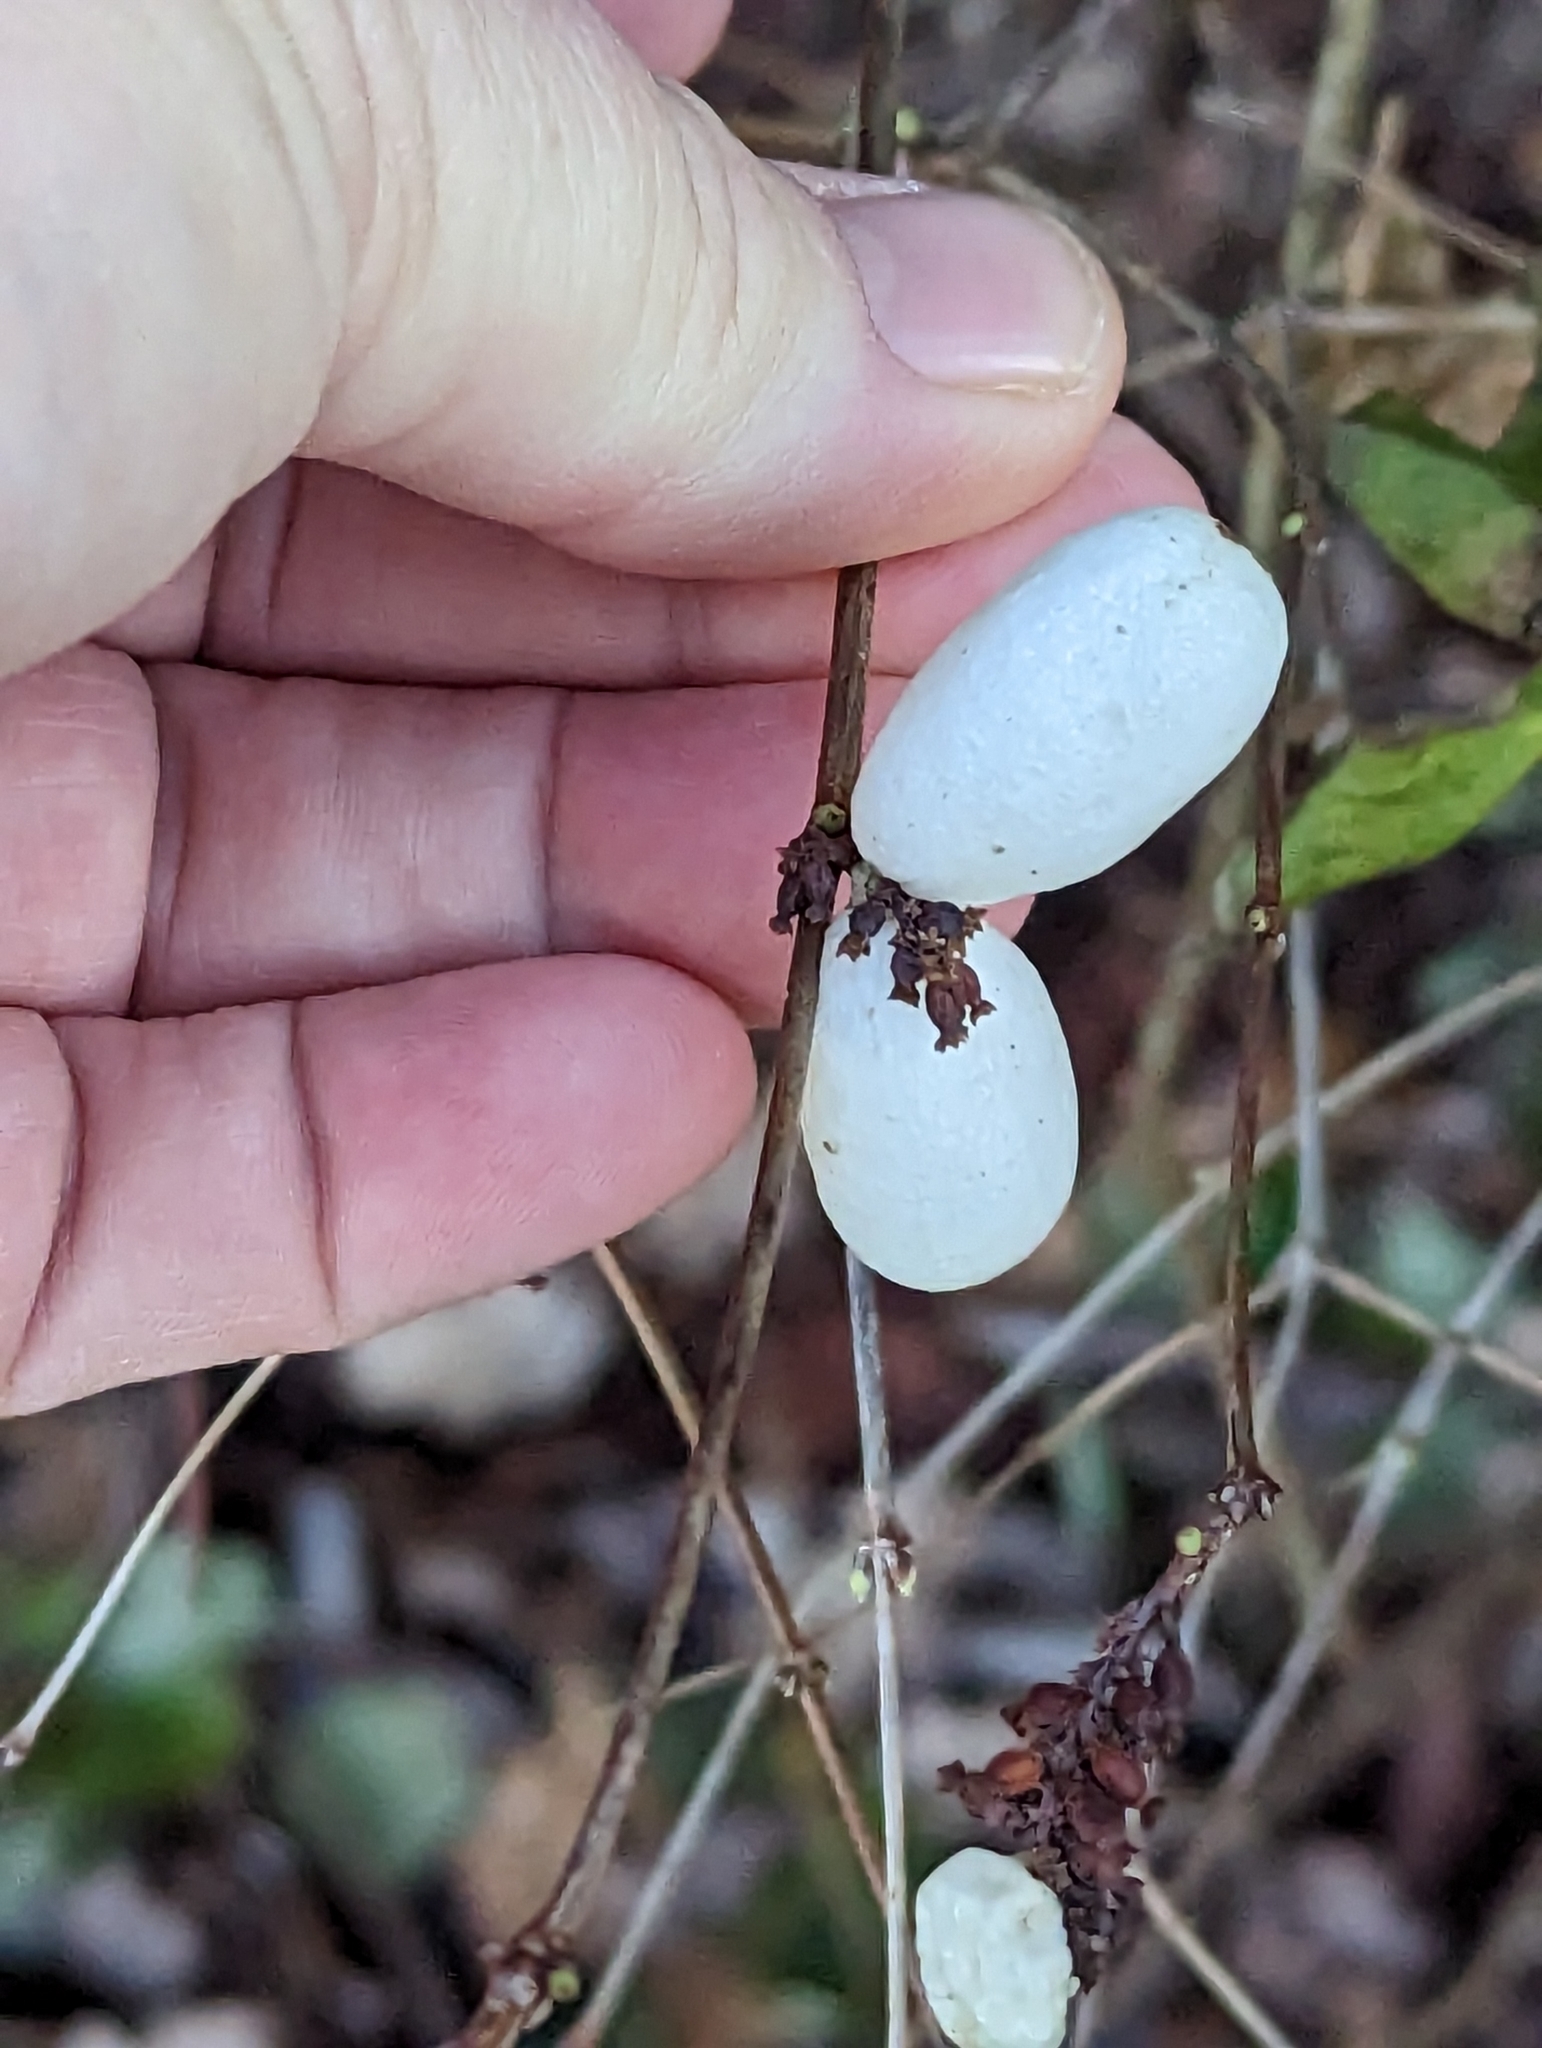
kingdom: Plantae
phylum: Tracheophyta
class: Magnoliopsida
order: Dipsacales
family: Caprifoliaceae
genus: Symphoricarpos
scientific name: Symphoricarpos albus
